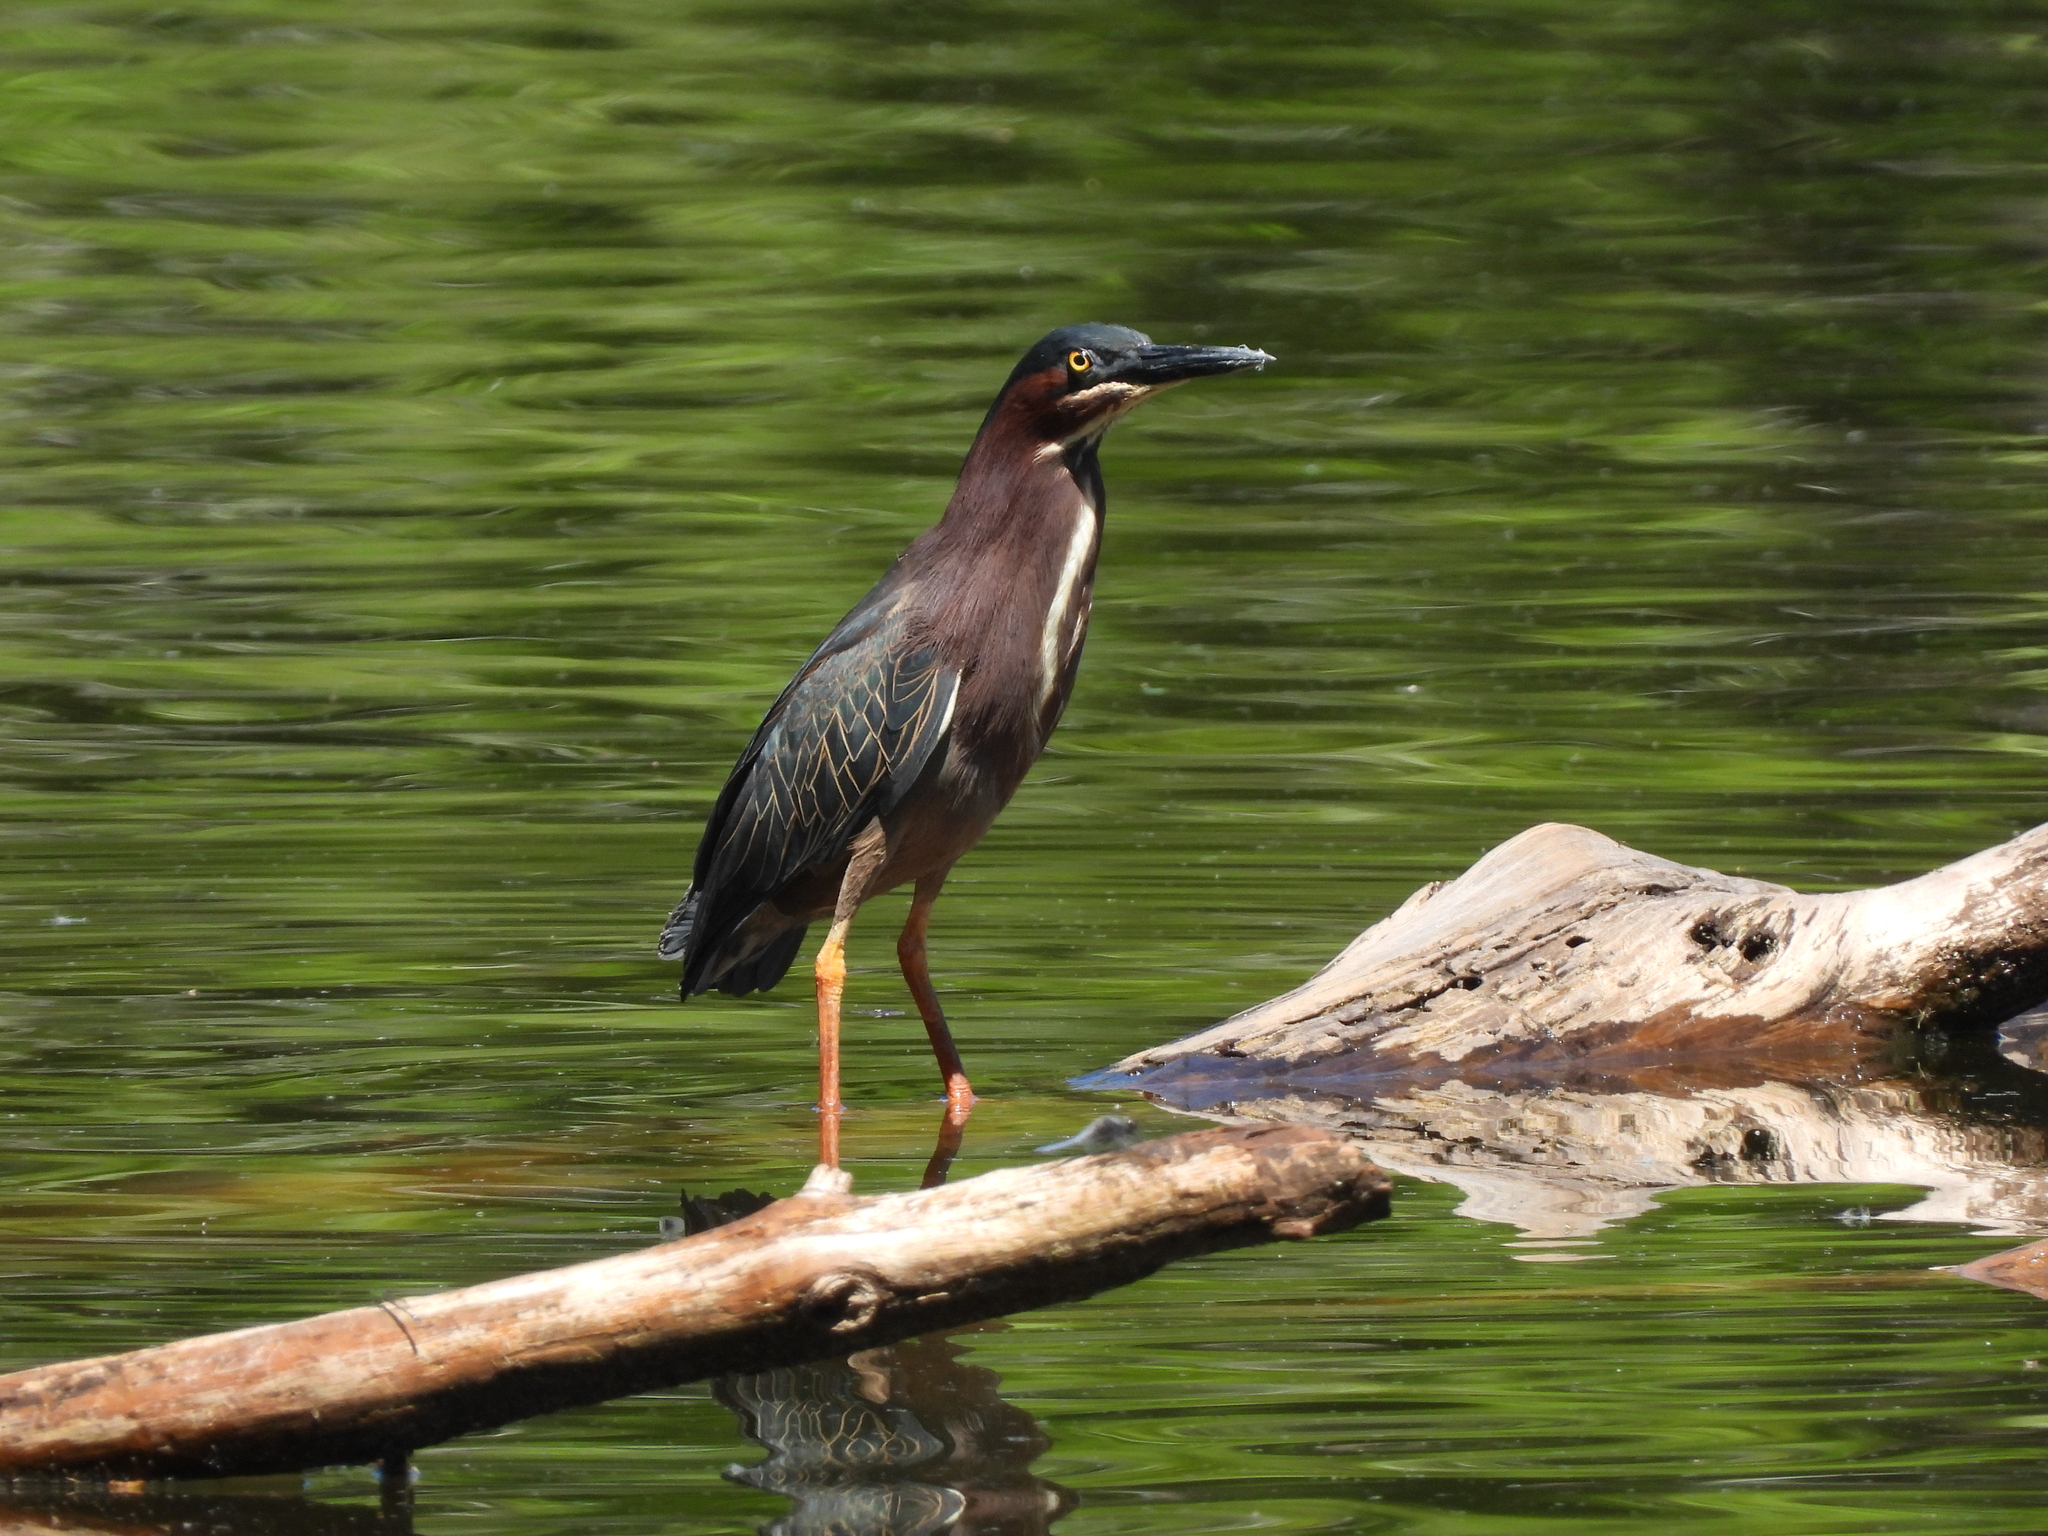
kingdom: Animalia
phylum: Chordata
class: Aves
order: Pelecaniformes
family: Ardeidae
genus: Butorides
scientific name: Butorides virescens
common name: Green heron
